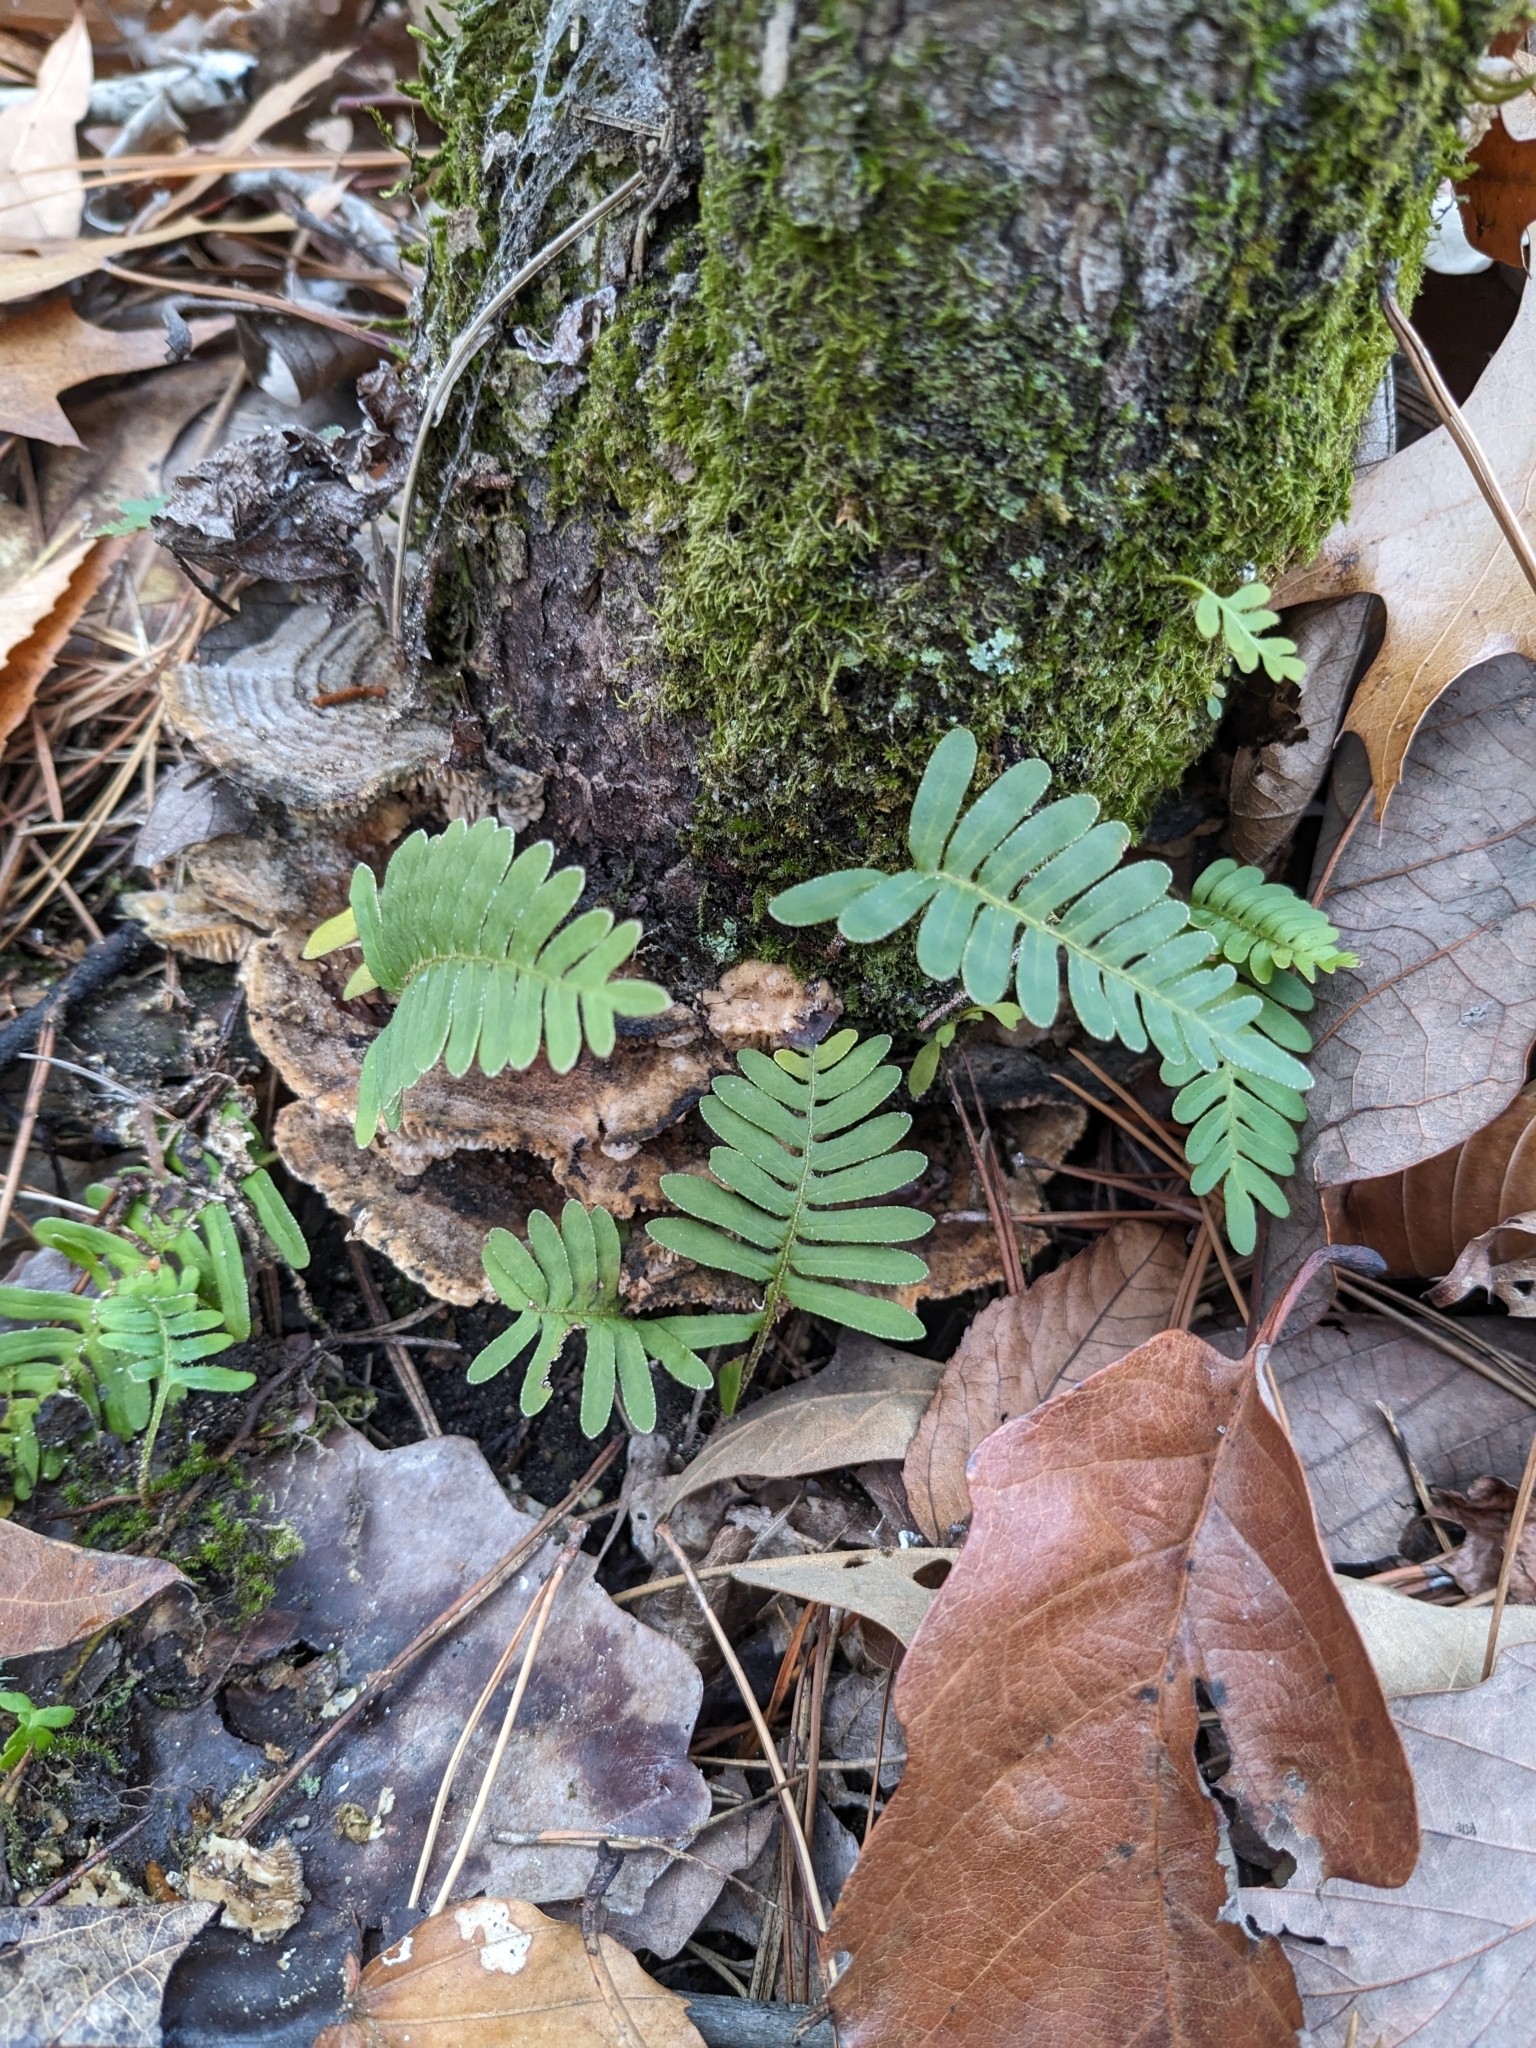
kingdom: Plantae
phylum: Tracheophyta
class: Polypodiopsida
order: Polypodiales
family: Polypodiaceae
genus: Pleopeltis
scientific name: Pleopeltis michauxiana
